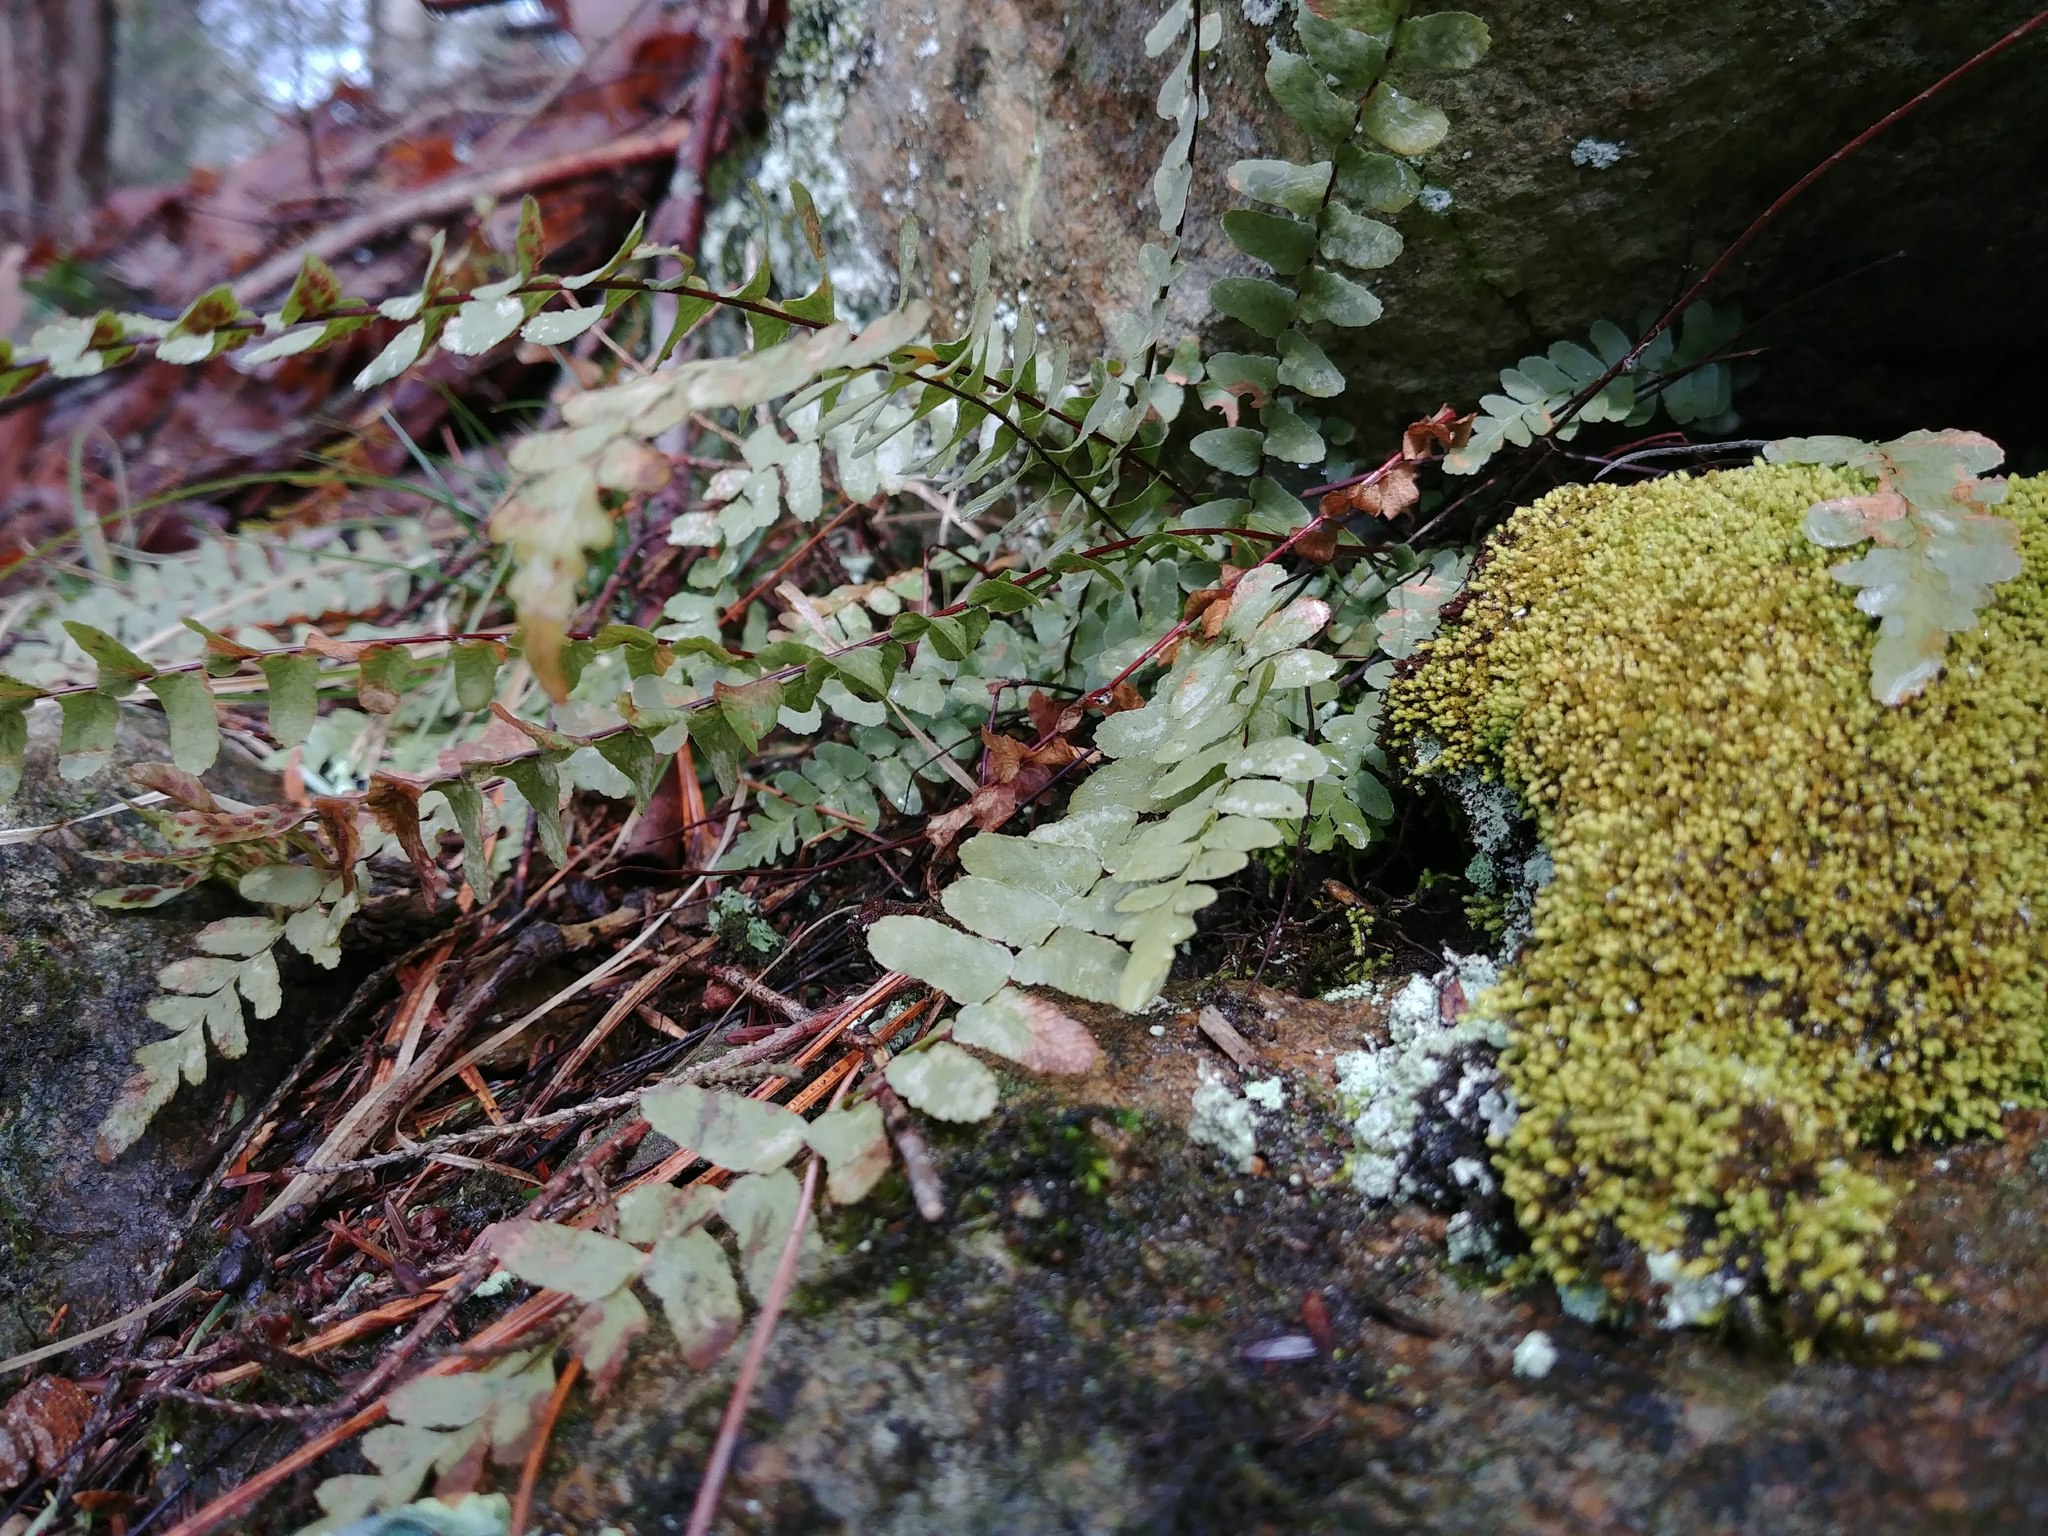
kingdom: Plantae
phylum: Tracheophyta
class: Polypodiopsida
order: Polypodiales
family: Aspleniaceae
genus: Asplenium
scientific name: Asplenium platyneuron
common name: Ebony spleenwort
